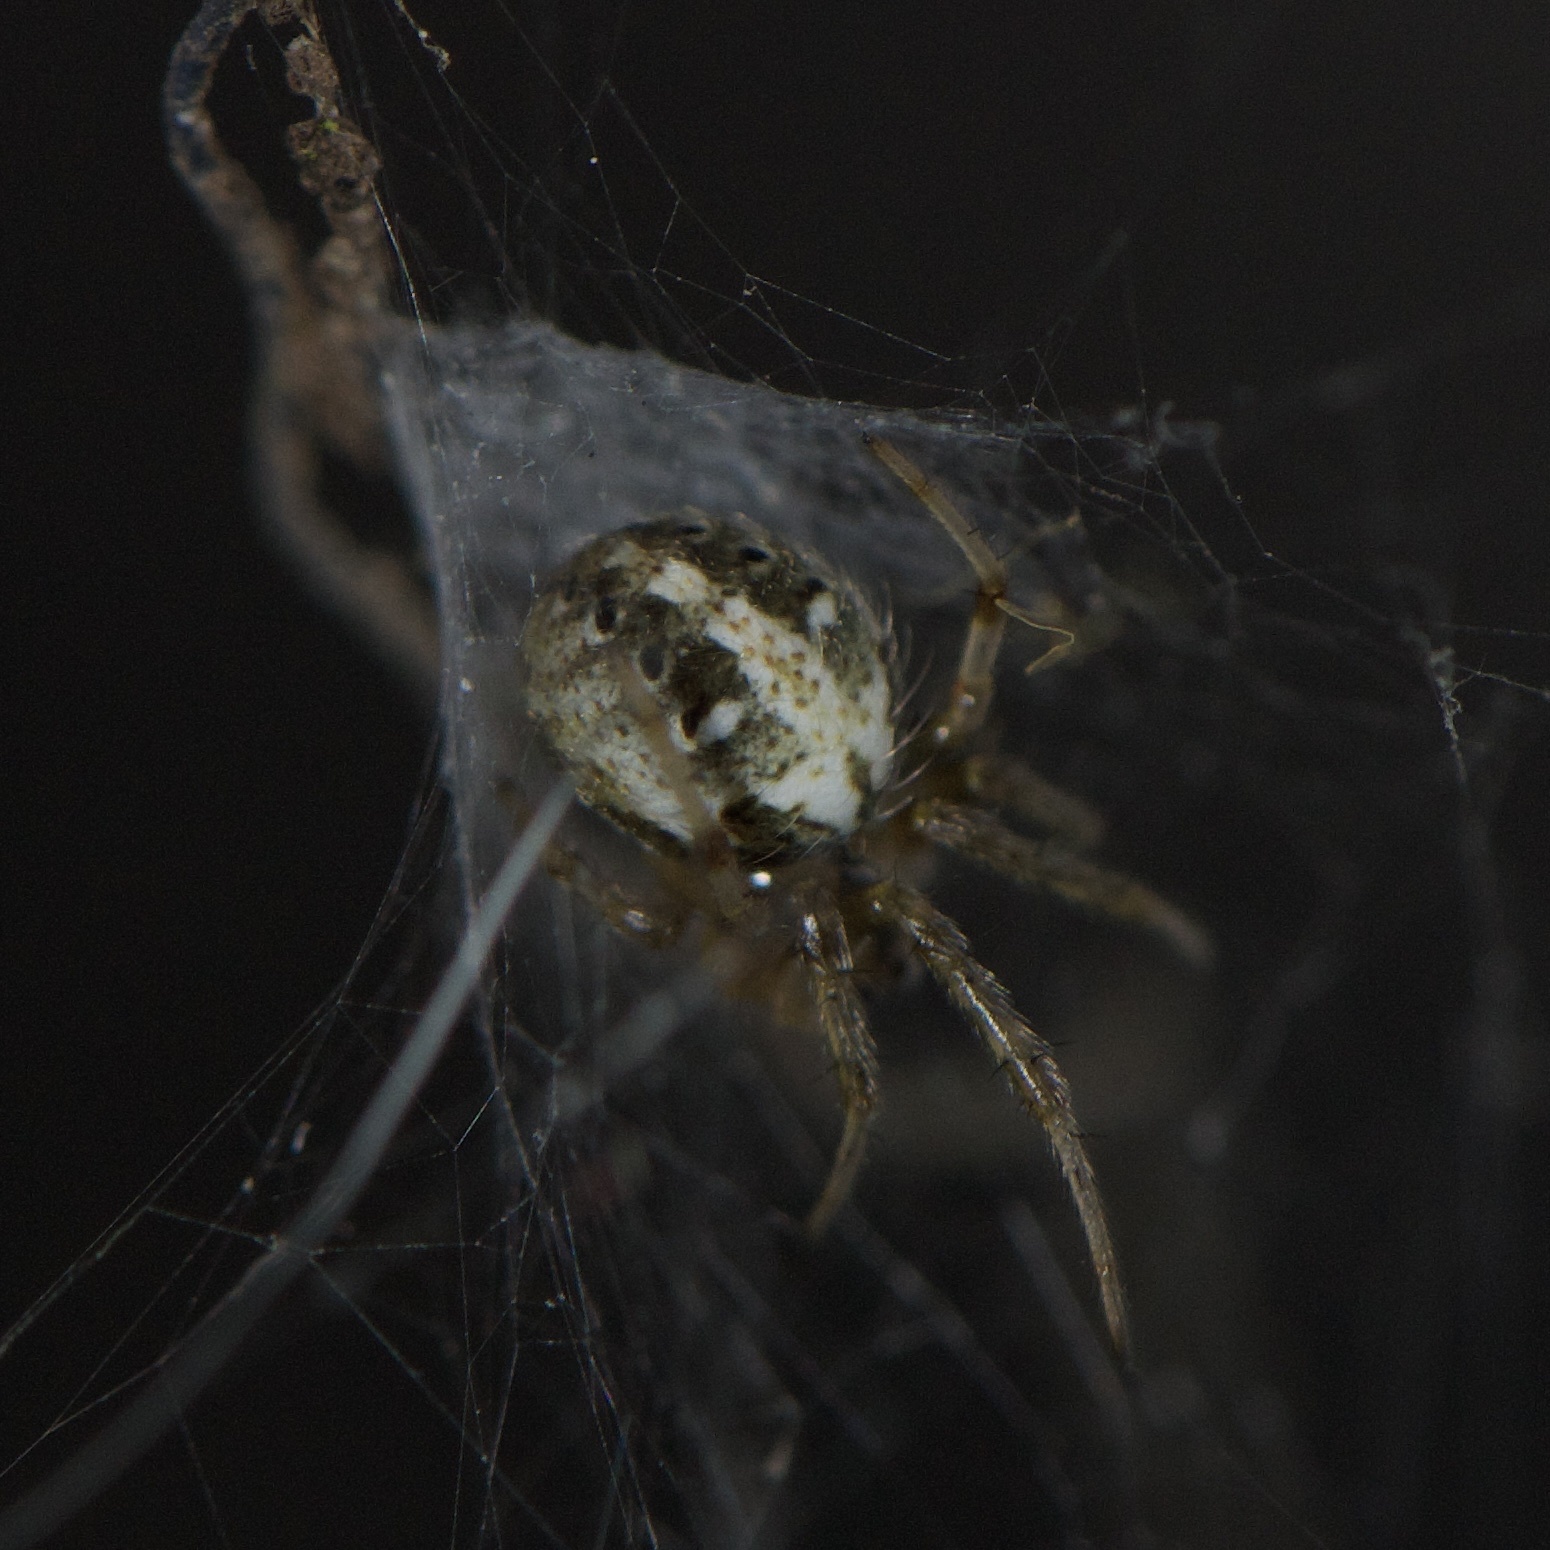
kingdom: Animalia
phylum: Arthropoda
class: Arachnida
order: Araneae
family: Araneidae
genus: Neoscona
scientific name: Neoscona arabesca
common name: Orb weavers
